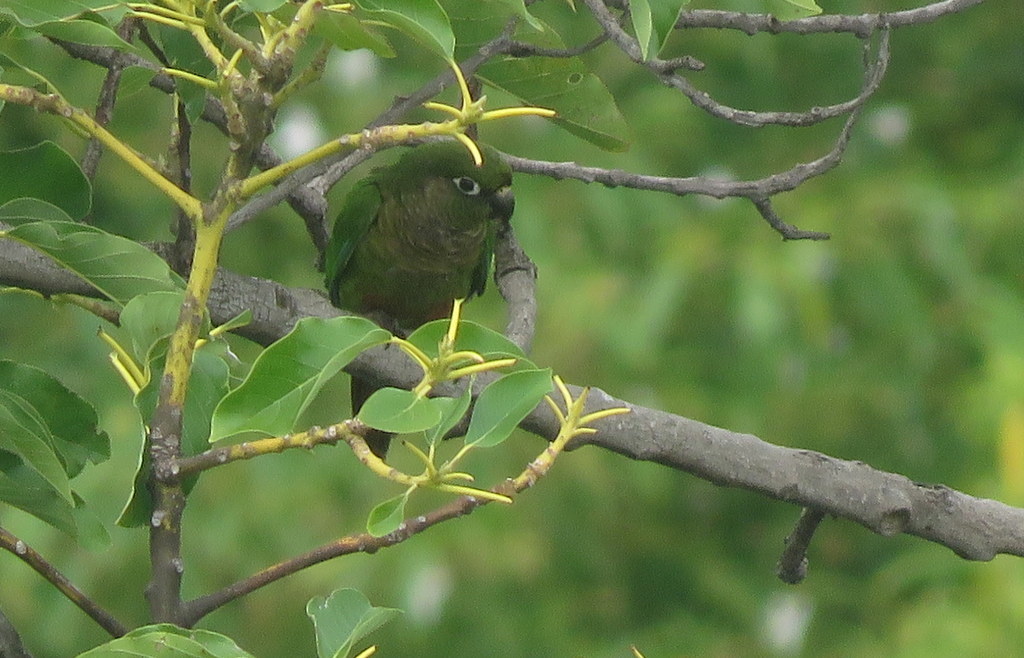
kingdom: Animalia
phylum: Chordata
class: Aves
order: Psittaciformes
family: Psittacidae
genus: Pyrrhura
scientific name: Pyrrhura frontalis
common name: Maroon-bellied parakeet
